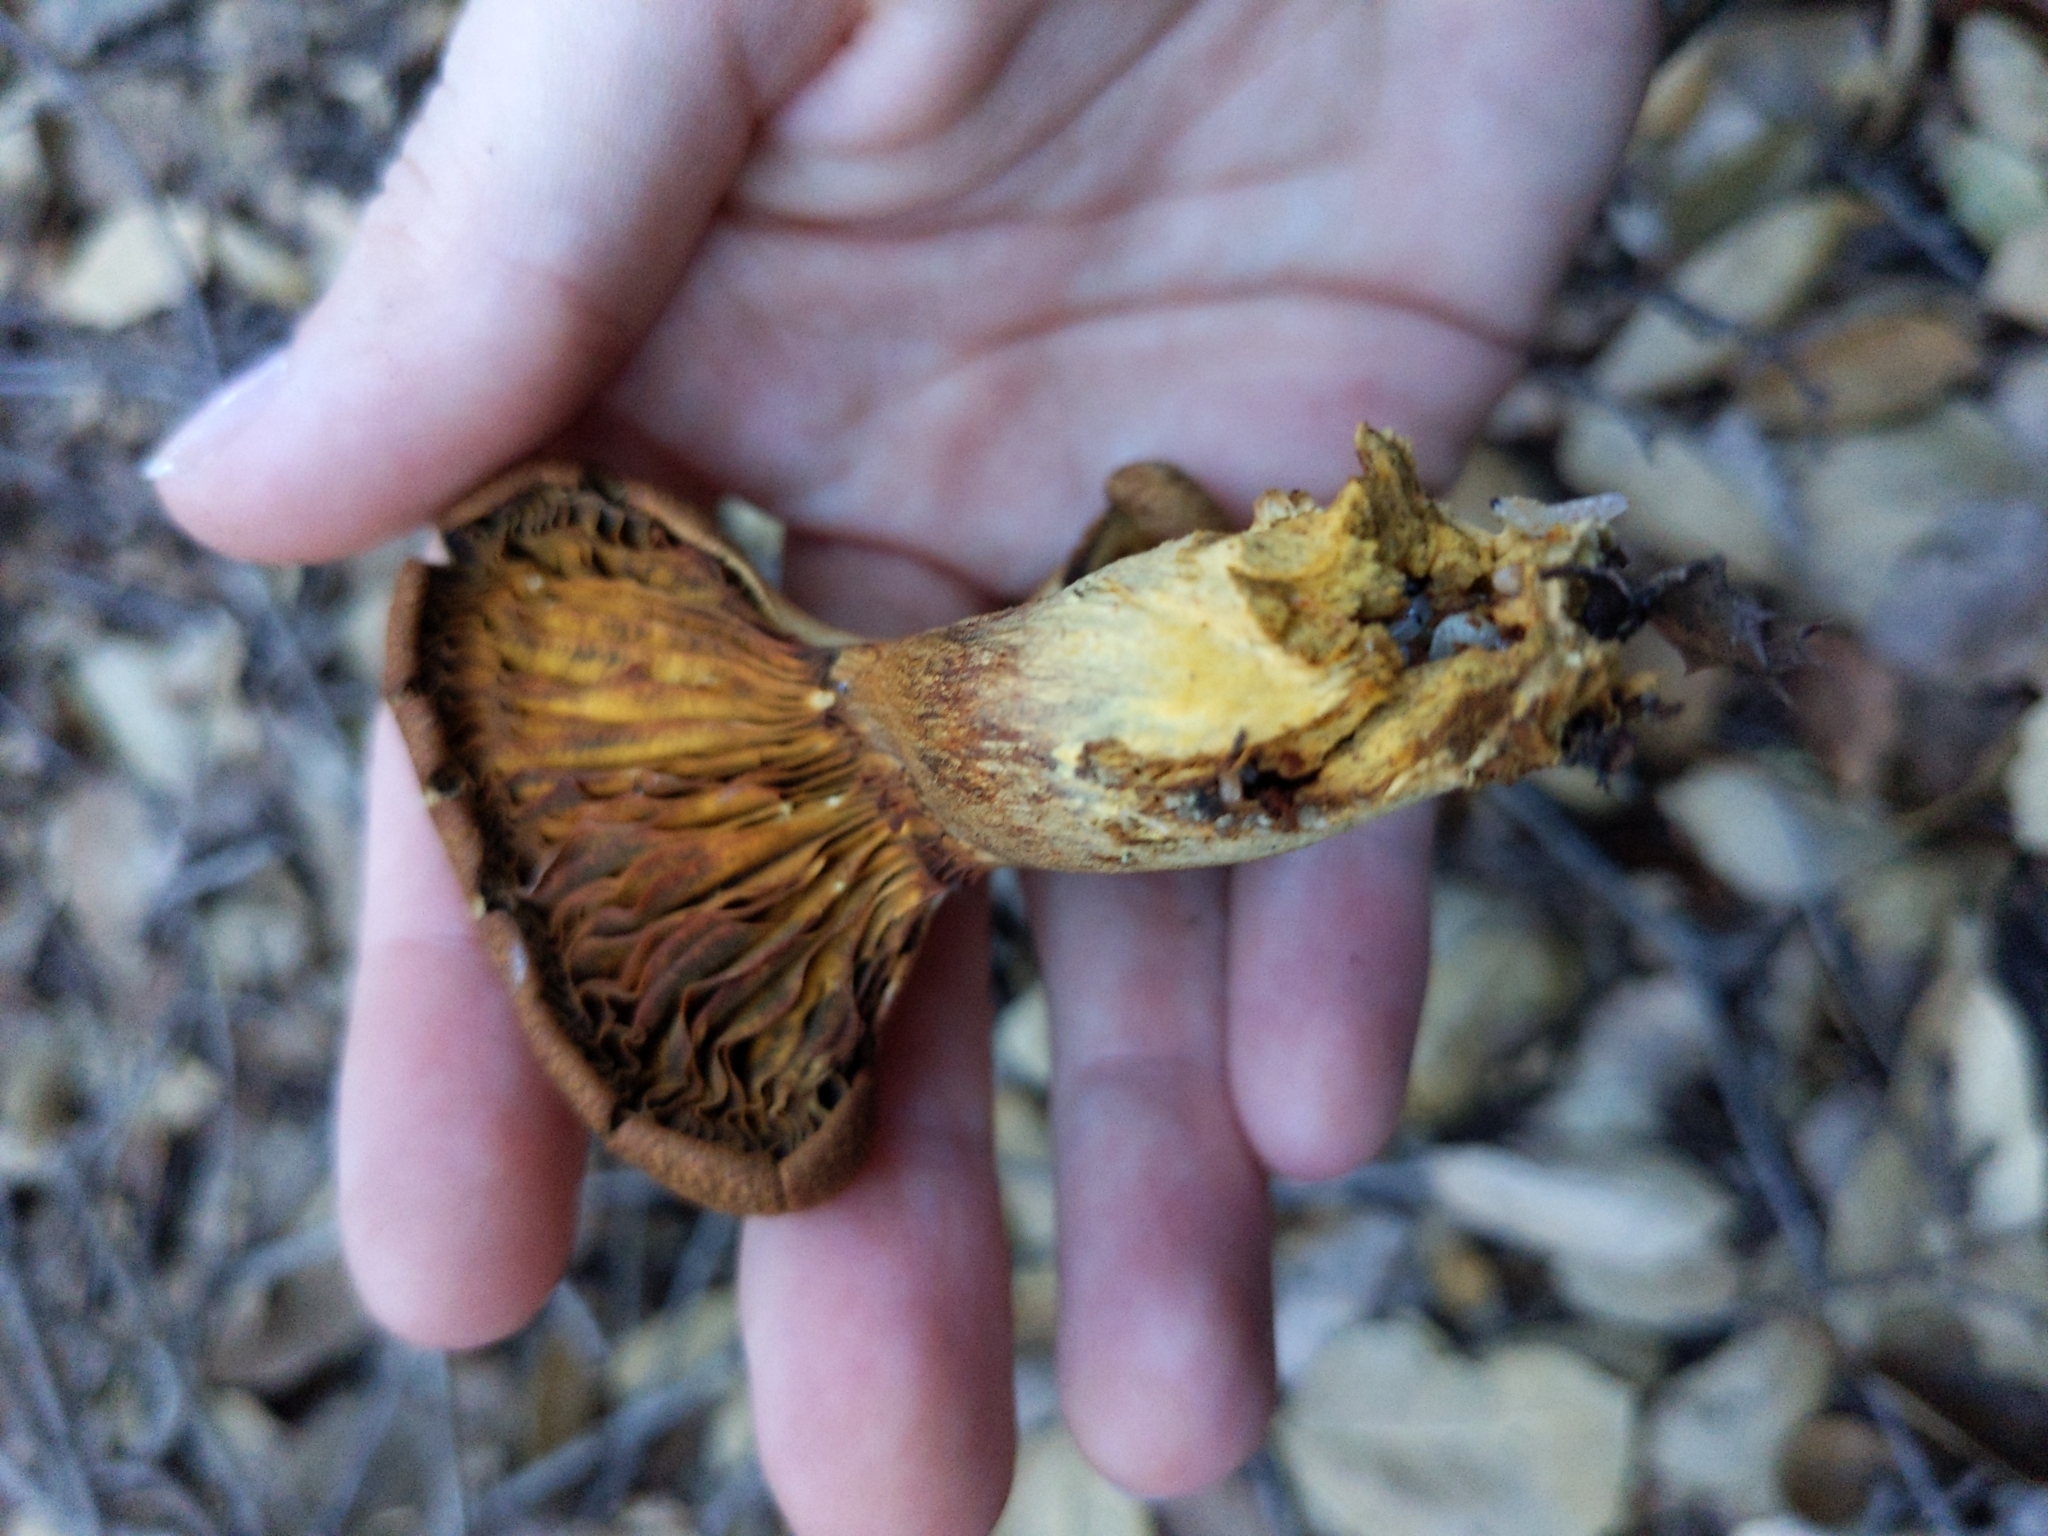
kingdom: Fungi
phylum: Basidiomycota
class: Agaricomycetes
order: Agaricales
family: Omphalotaceae
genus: Omphalotus
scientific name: Omphalotus olivascens
